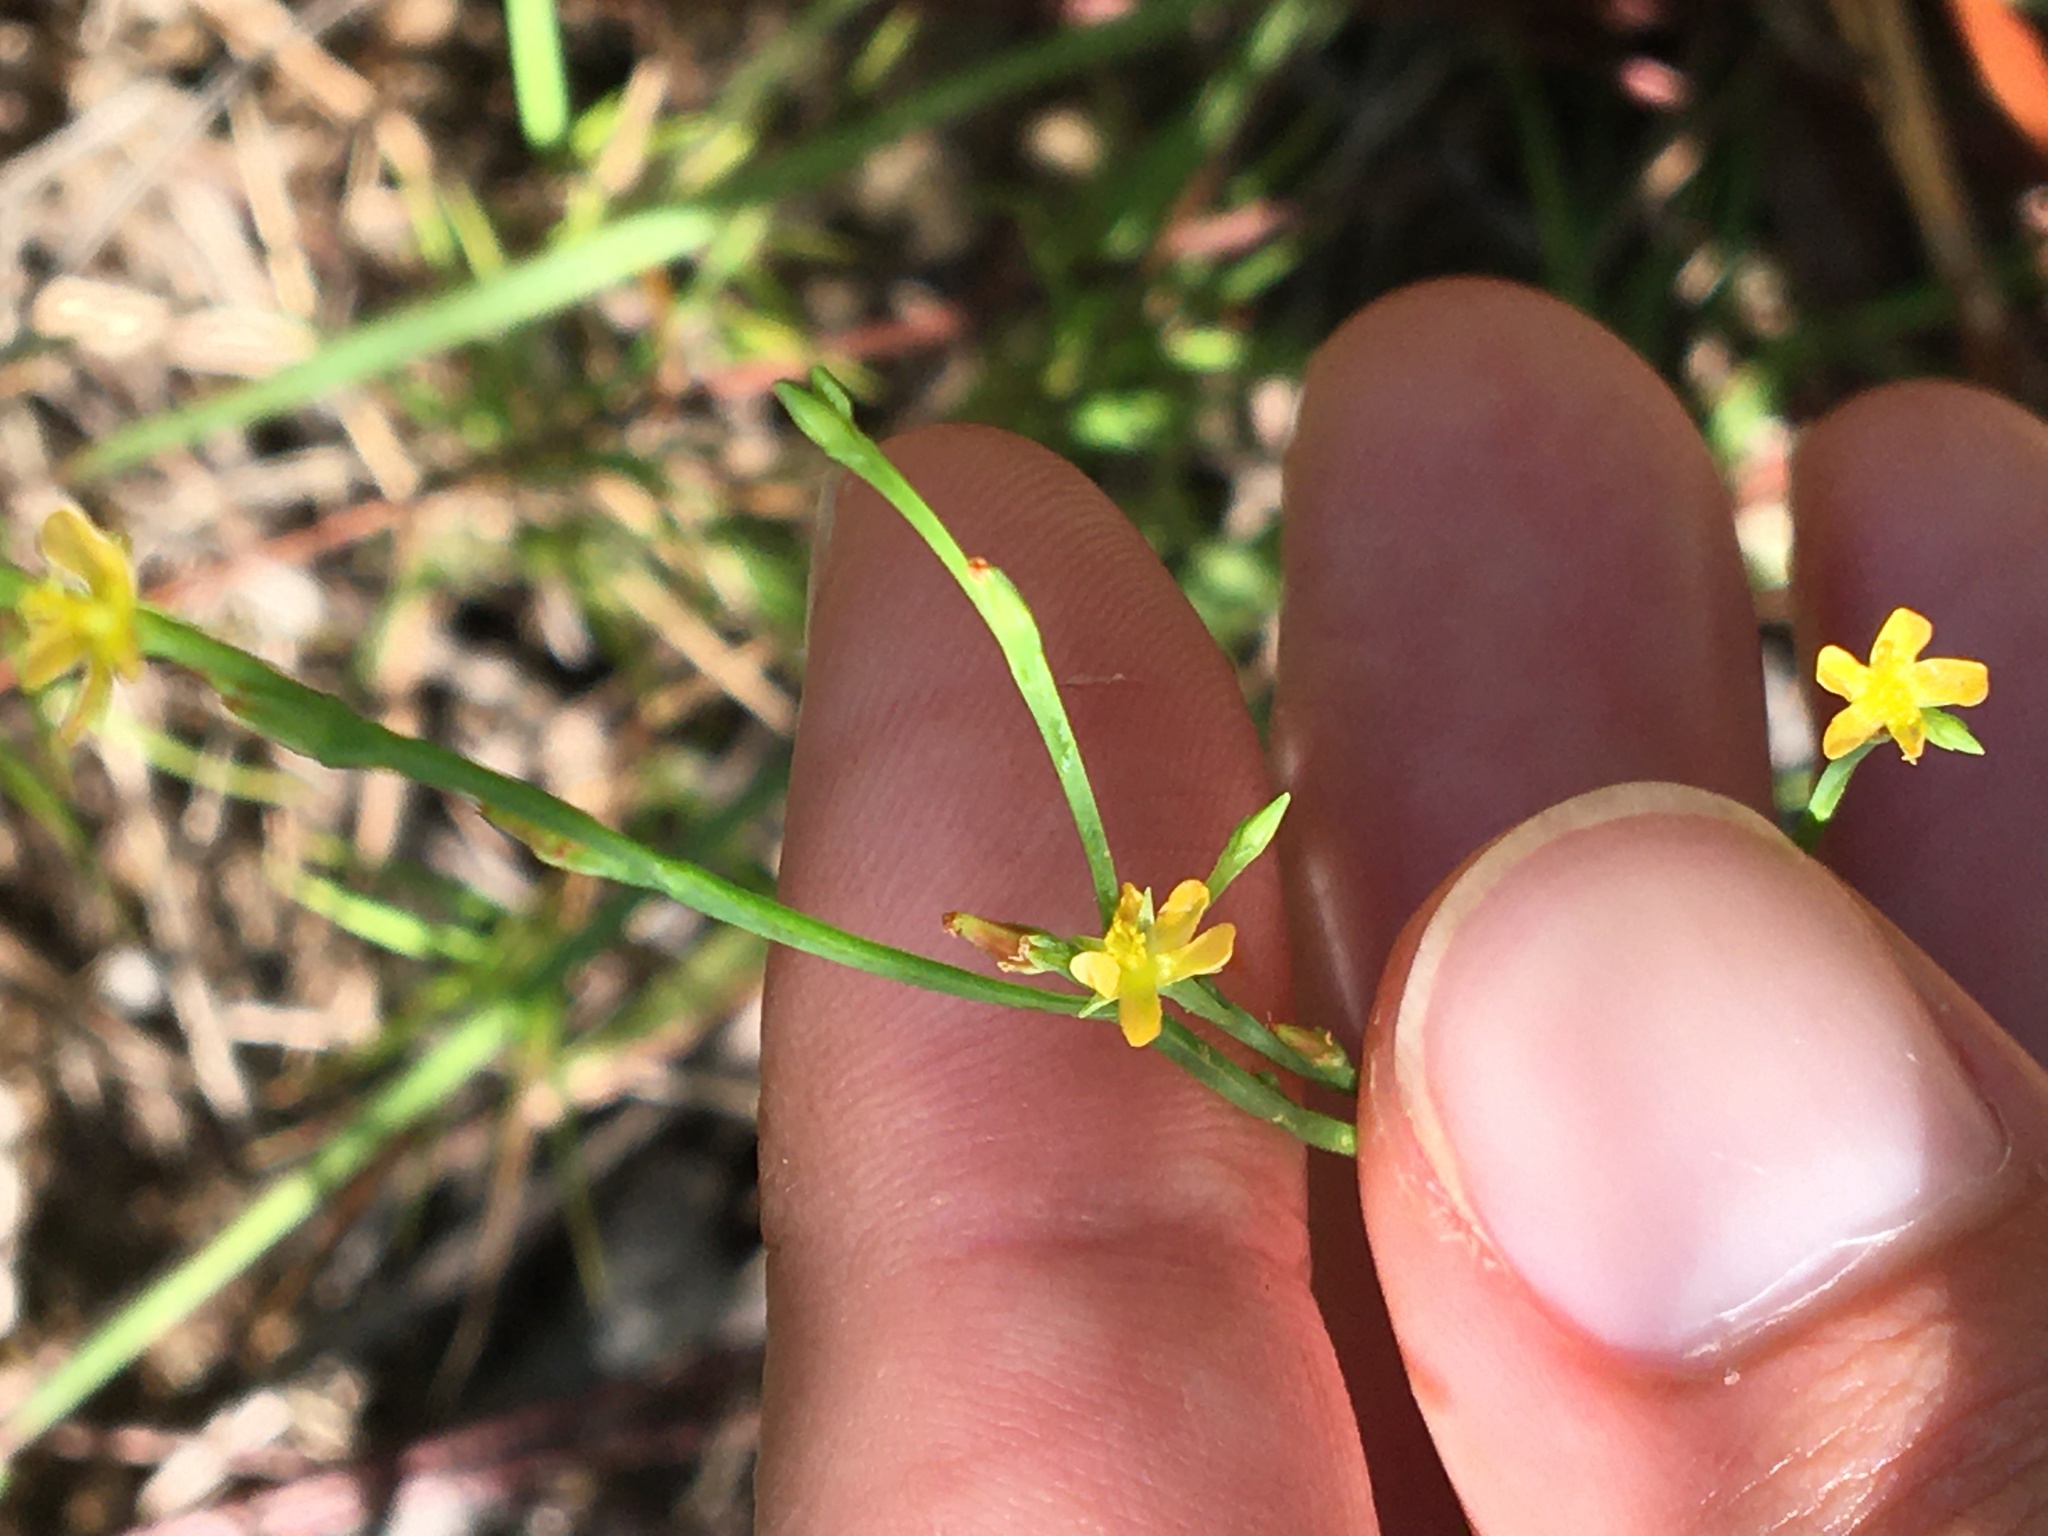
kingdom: Plantae
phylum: Tracheophyta
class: Magnoliopsida
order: Malpighiales
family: Hypericaceae
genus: Hypericum
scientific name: Hypericum gentianoides
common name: Gentian-leaved st. john's-wort
